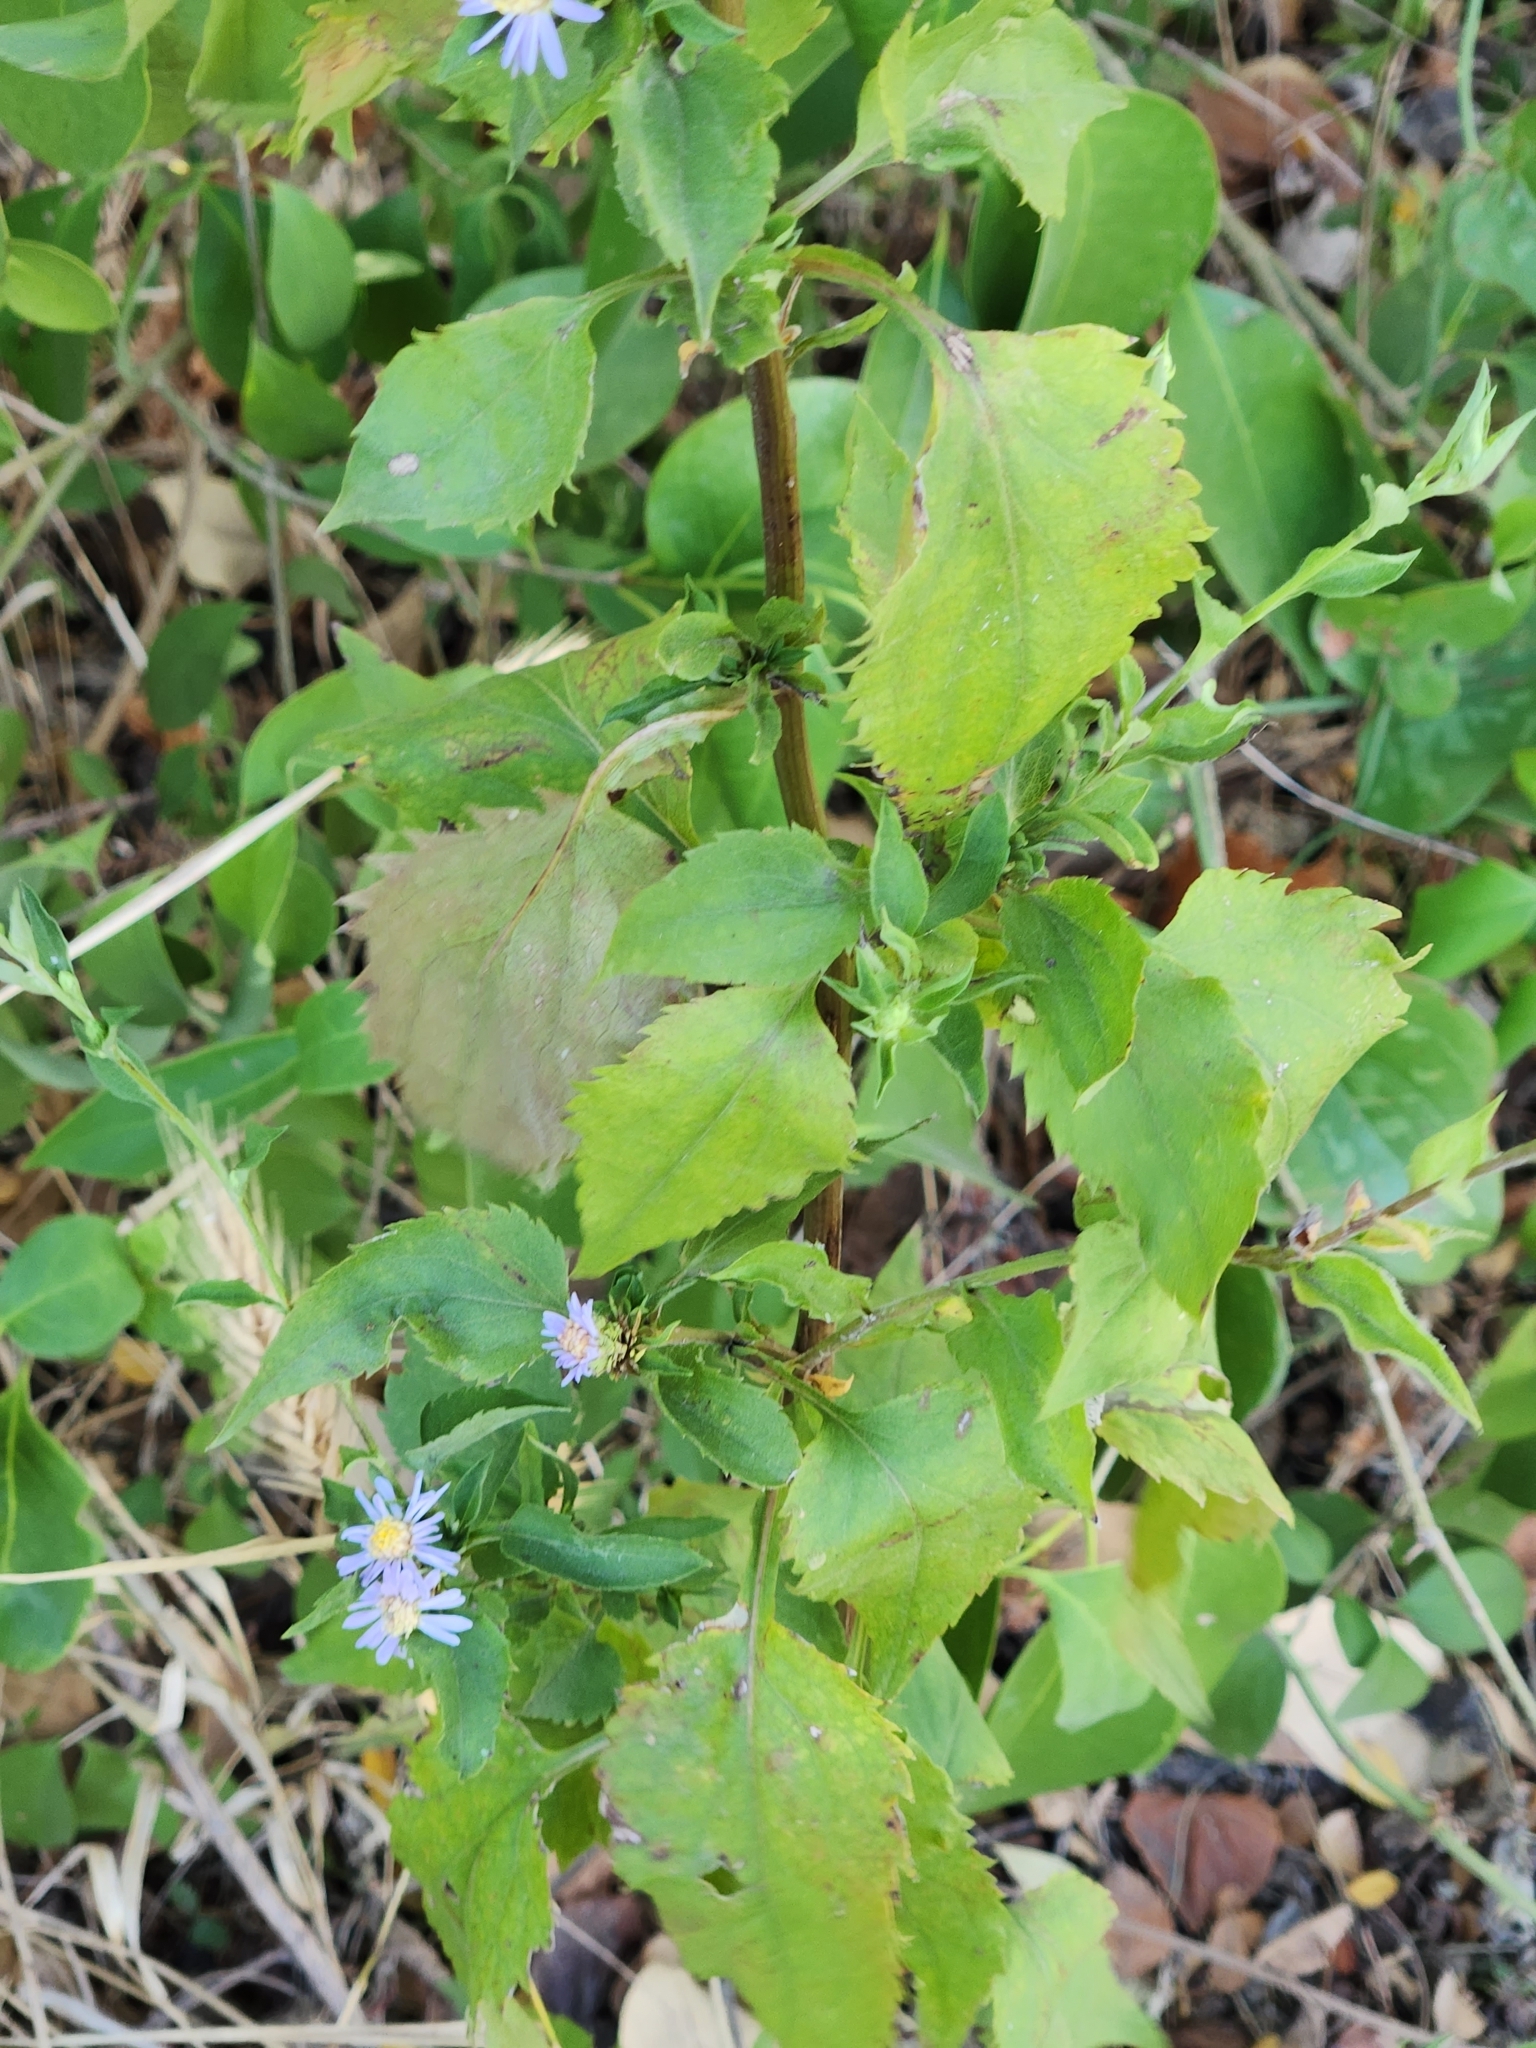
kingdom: Plantae
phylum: Tracheophyta
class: Magnoliopsida
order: Asterales
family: Asteraceae
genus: Symphyotrichum
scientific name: Symphyotrichum drummondii
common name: Drummond's aster
